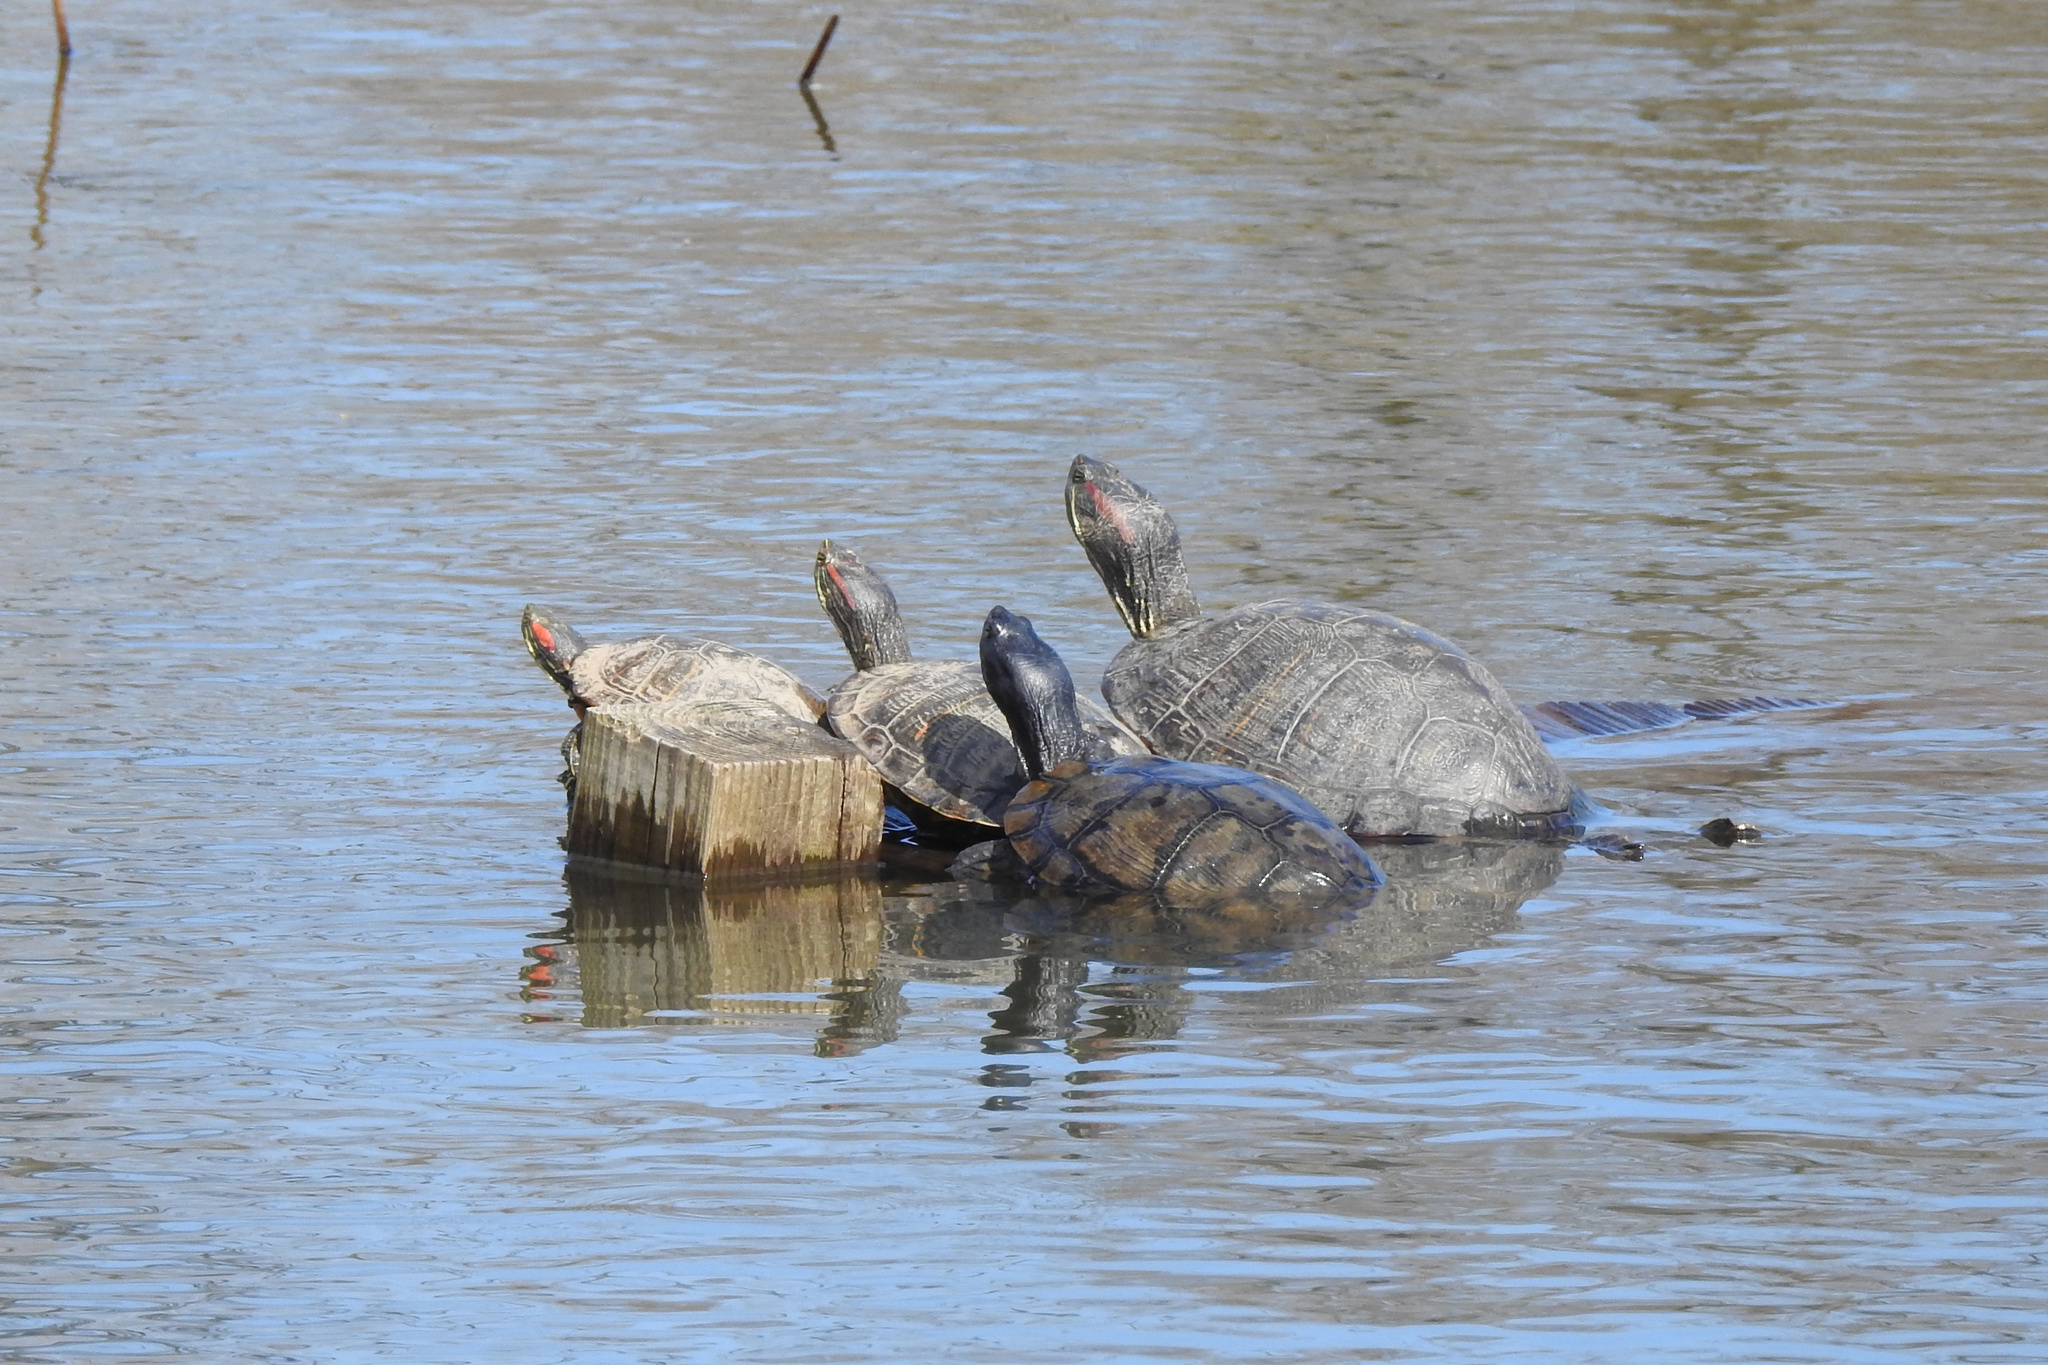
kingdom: Animalia
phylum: Chordata
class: Testudines
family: Emydidae
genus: Trachemys
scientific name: Trachemys scripta
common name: Slider
